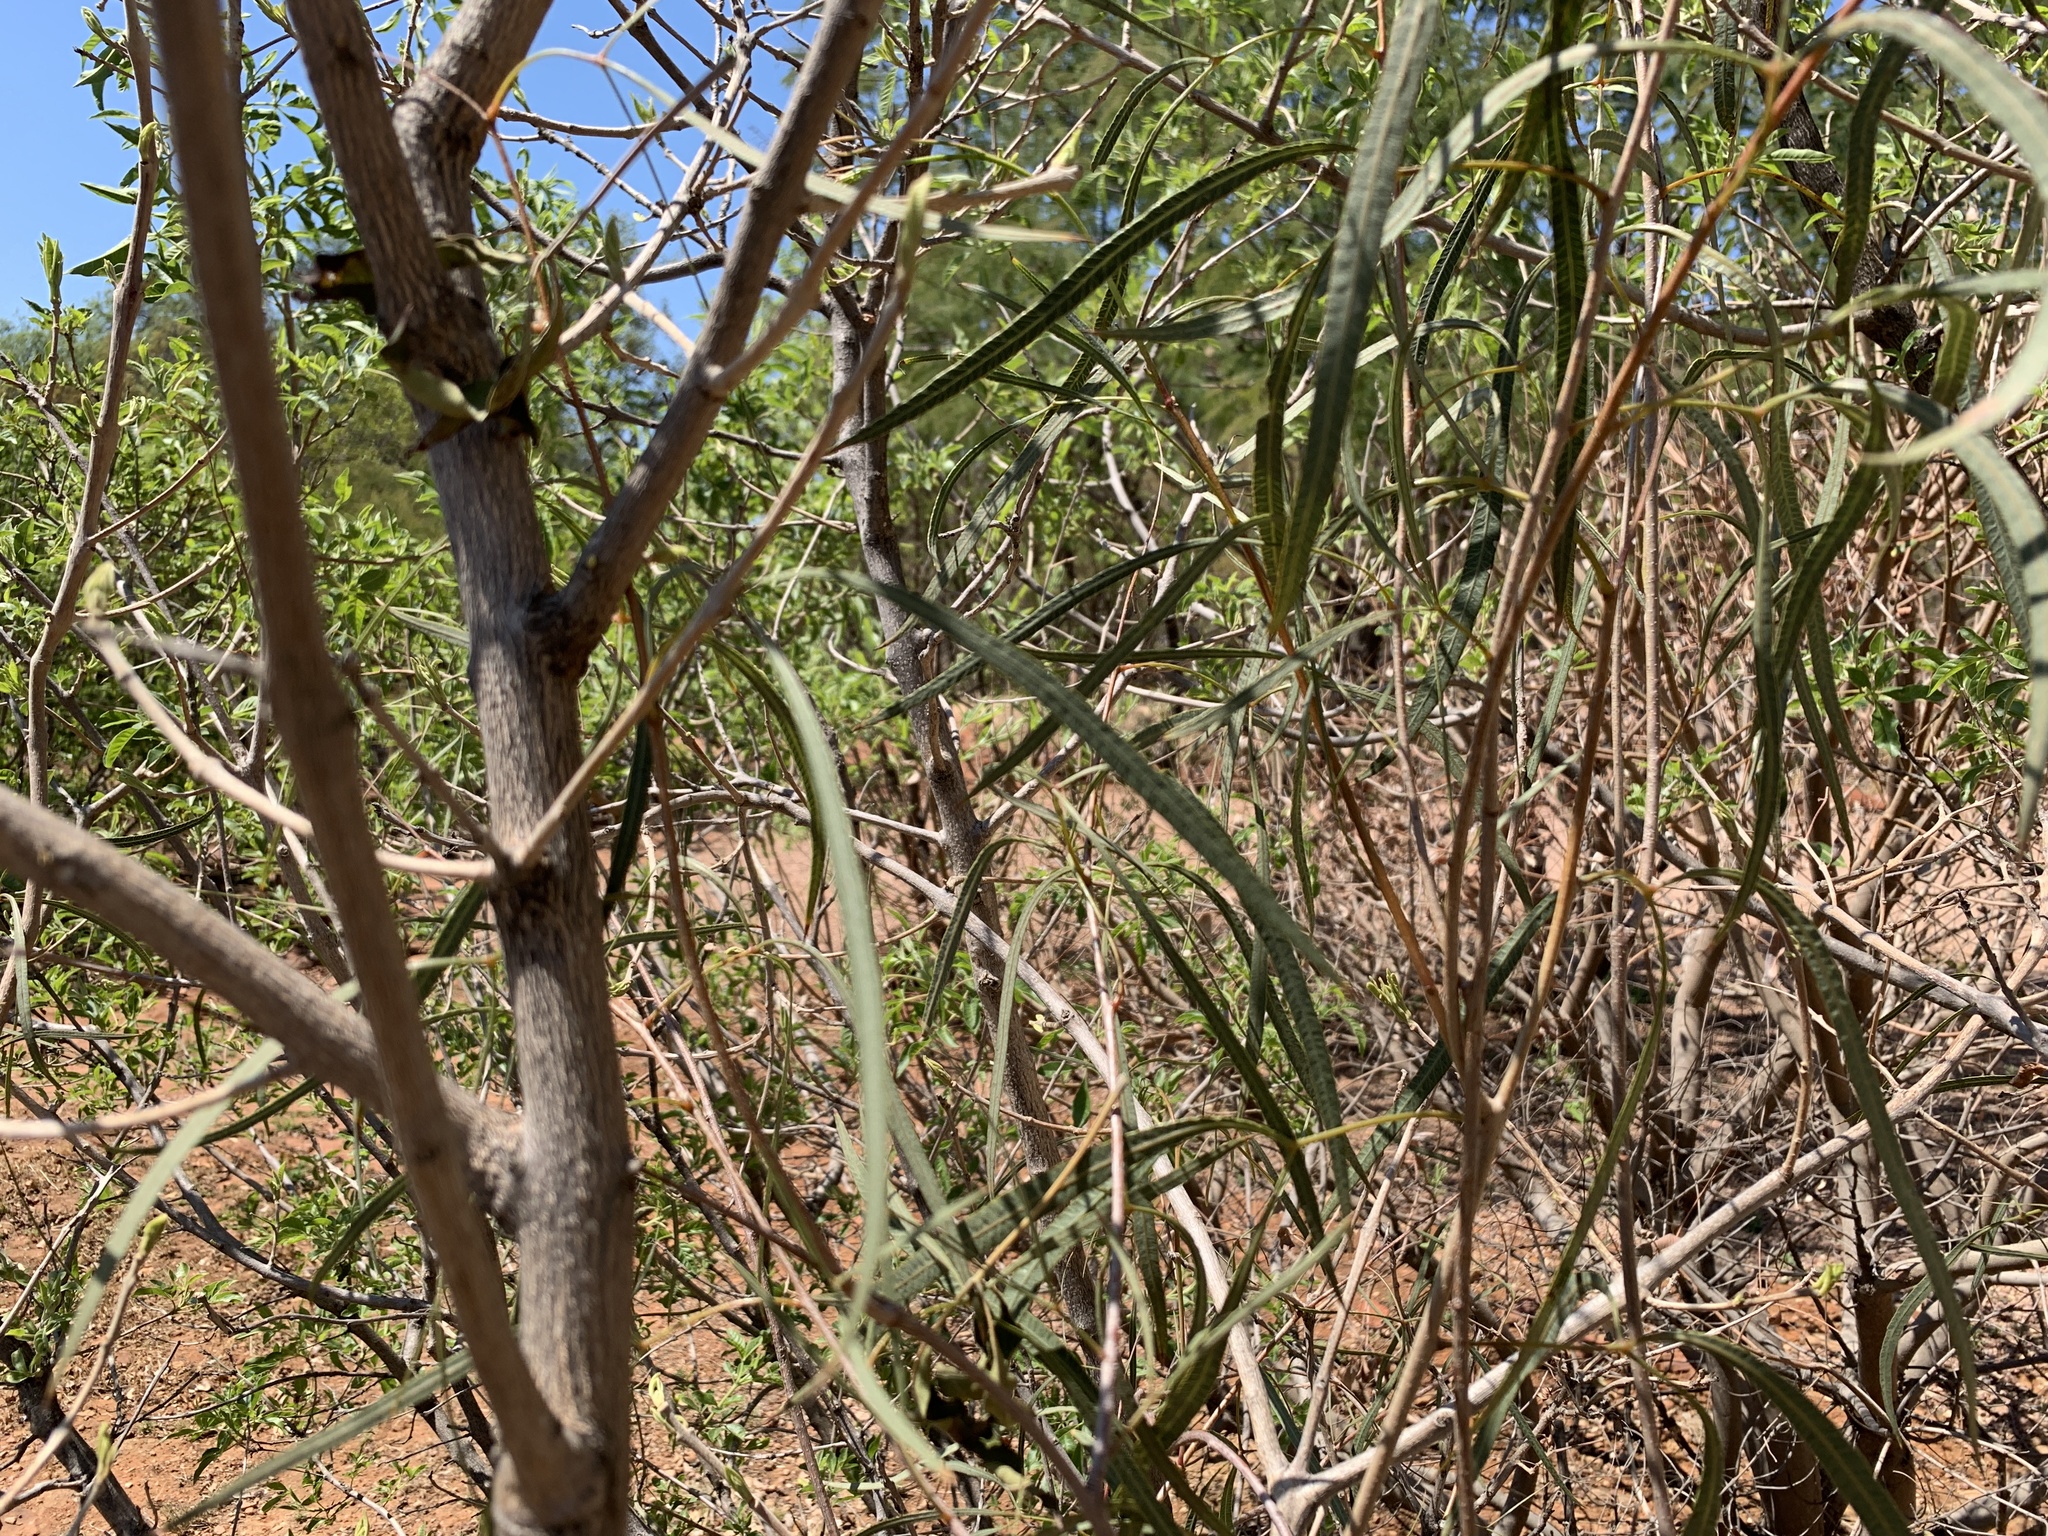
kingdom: Plantae
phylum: Tracheophyta
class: Magnoliopsida
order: Sapindales
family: Anacardiaceae
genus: Searsia
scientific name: Searsia keetii
